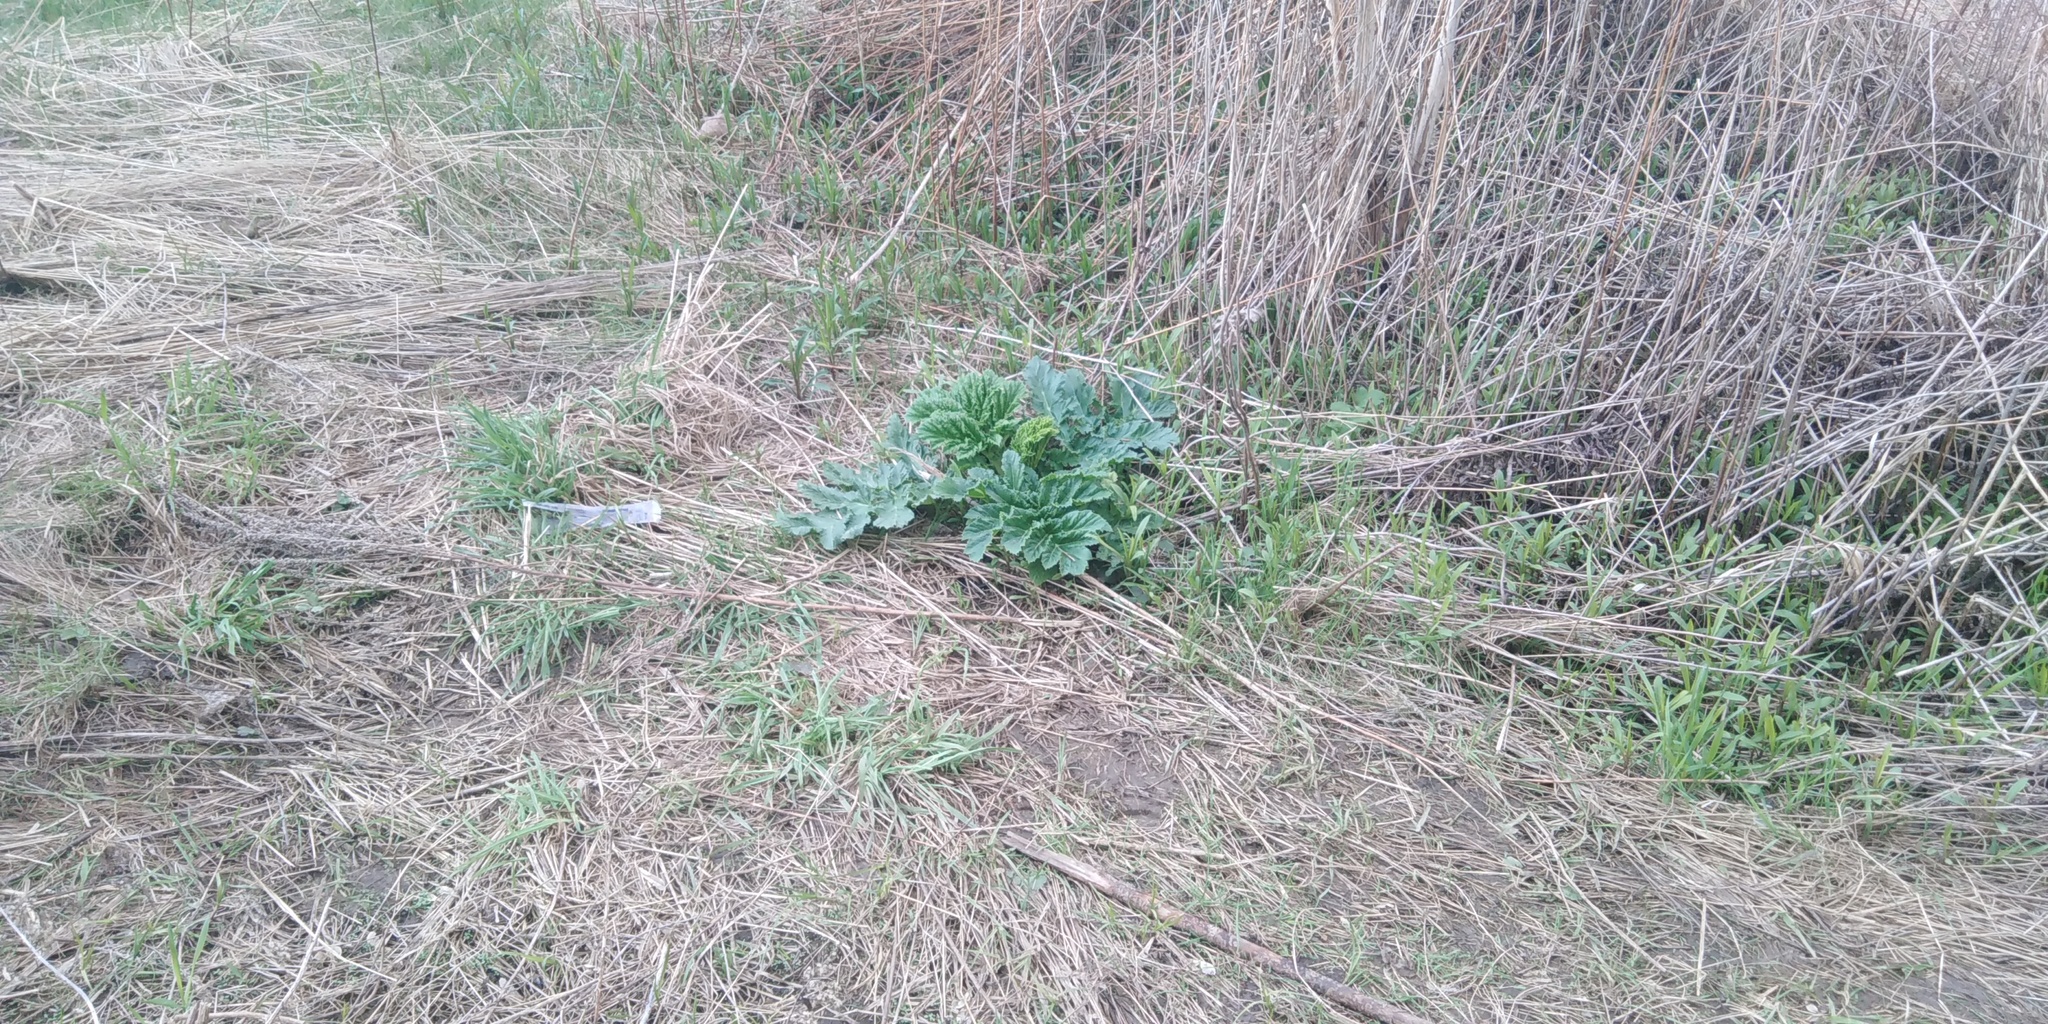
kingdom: Plantae
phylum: Tracheophyta
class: Magnoliopsida
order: Apiales
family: Apiaceae
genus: Heracleum
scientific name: Heracleum sosnowskyi
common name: Sosnowsky's hogweed
